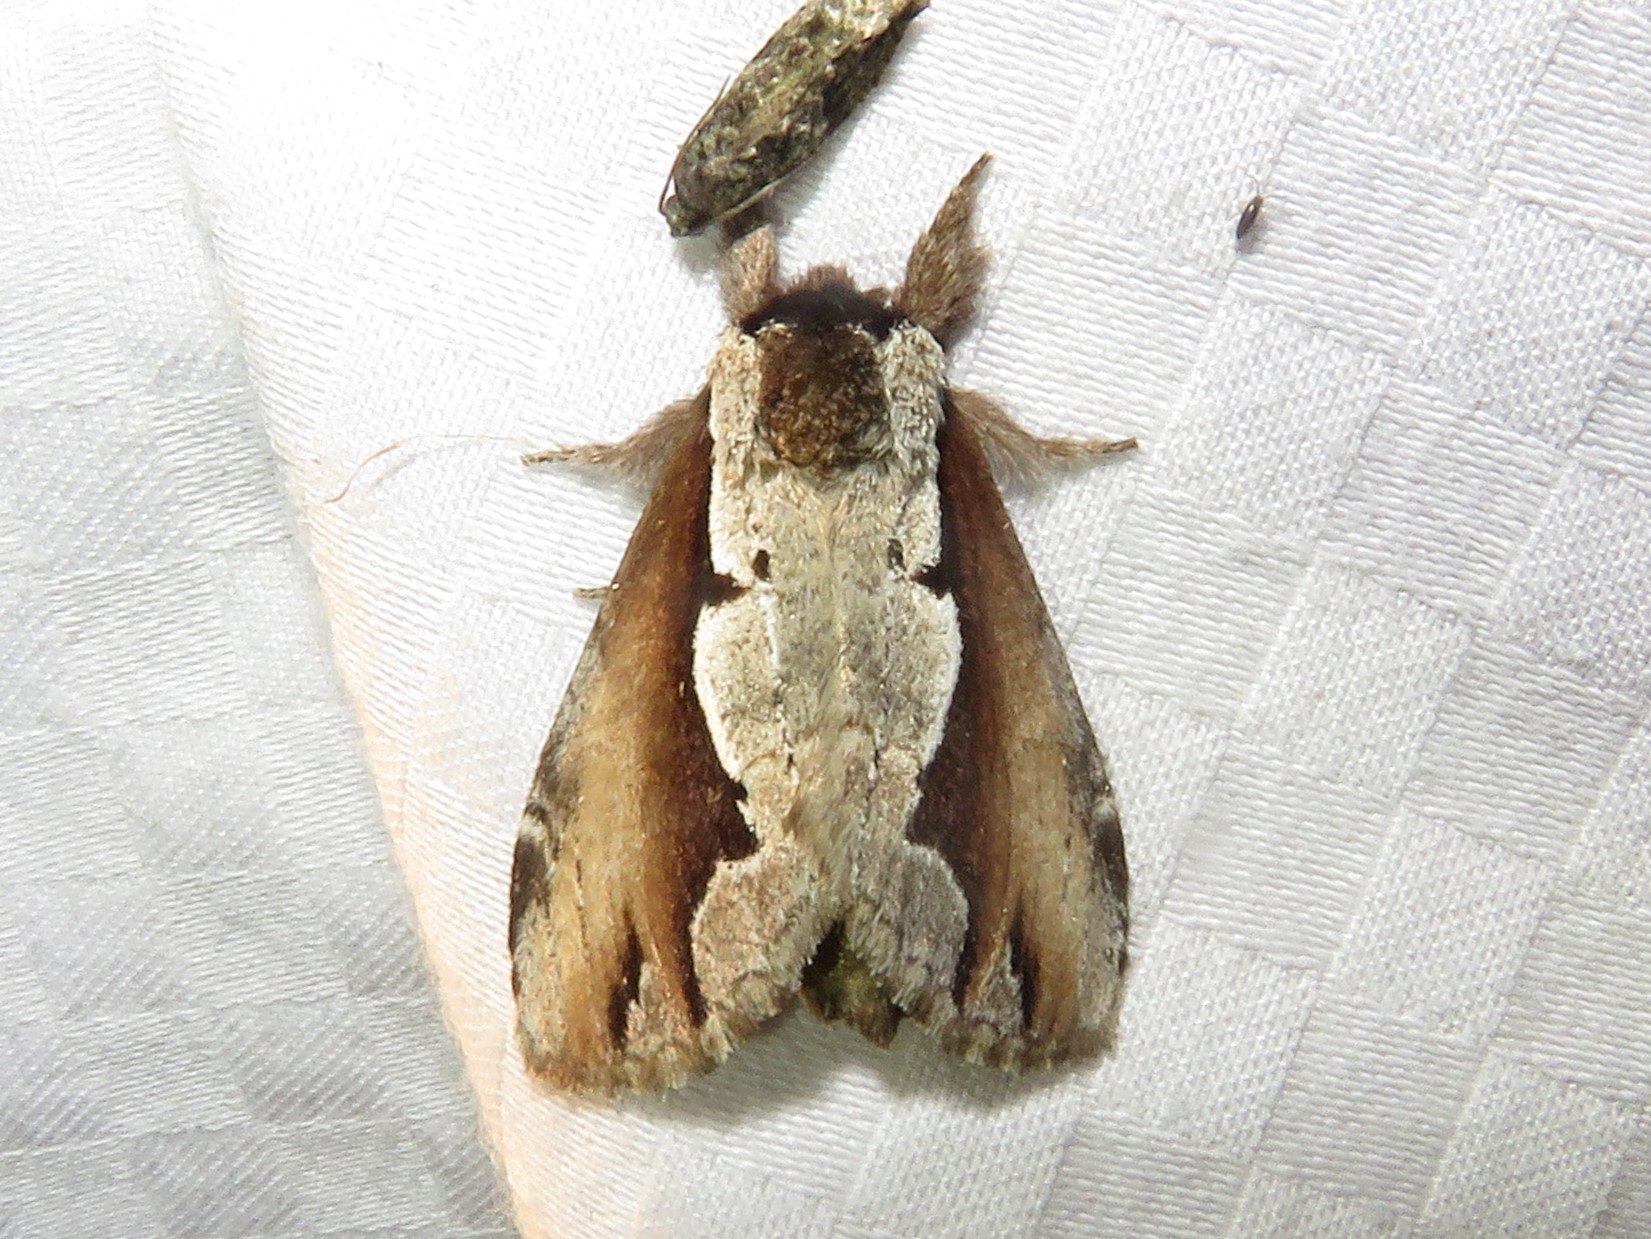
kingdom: Animalia
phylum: Arthropoda
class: Insecta
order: Lepidoptera
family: Notodontidae
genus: Nerice
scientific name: Nerice bidentata
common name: Double-toothed prominent
